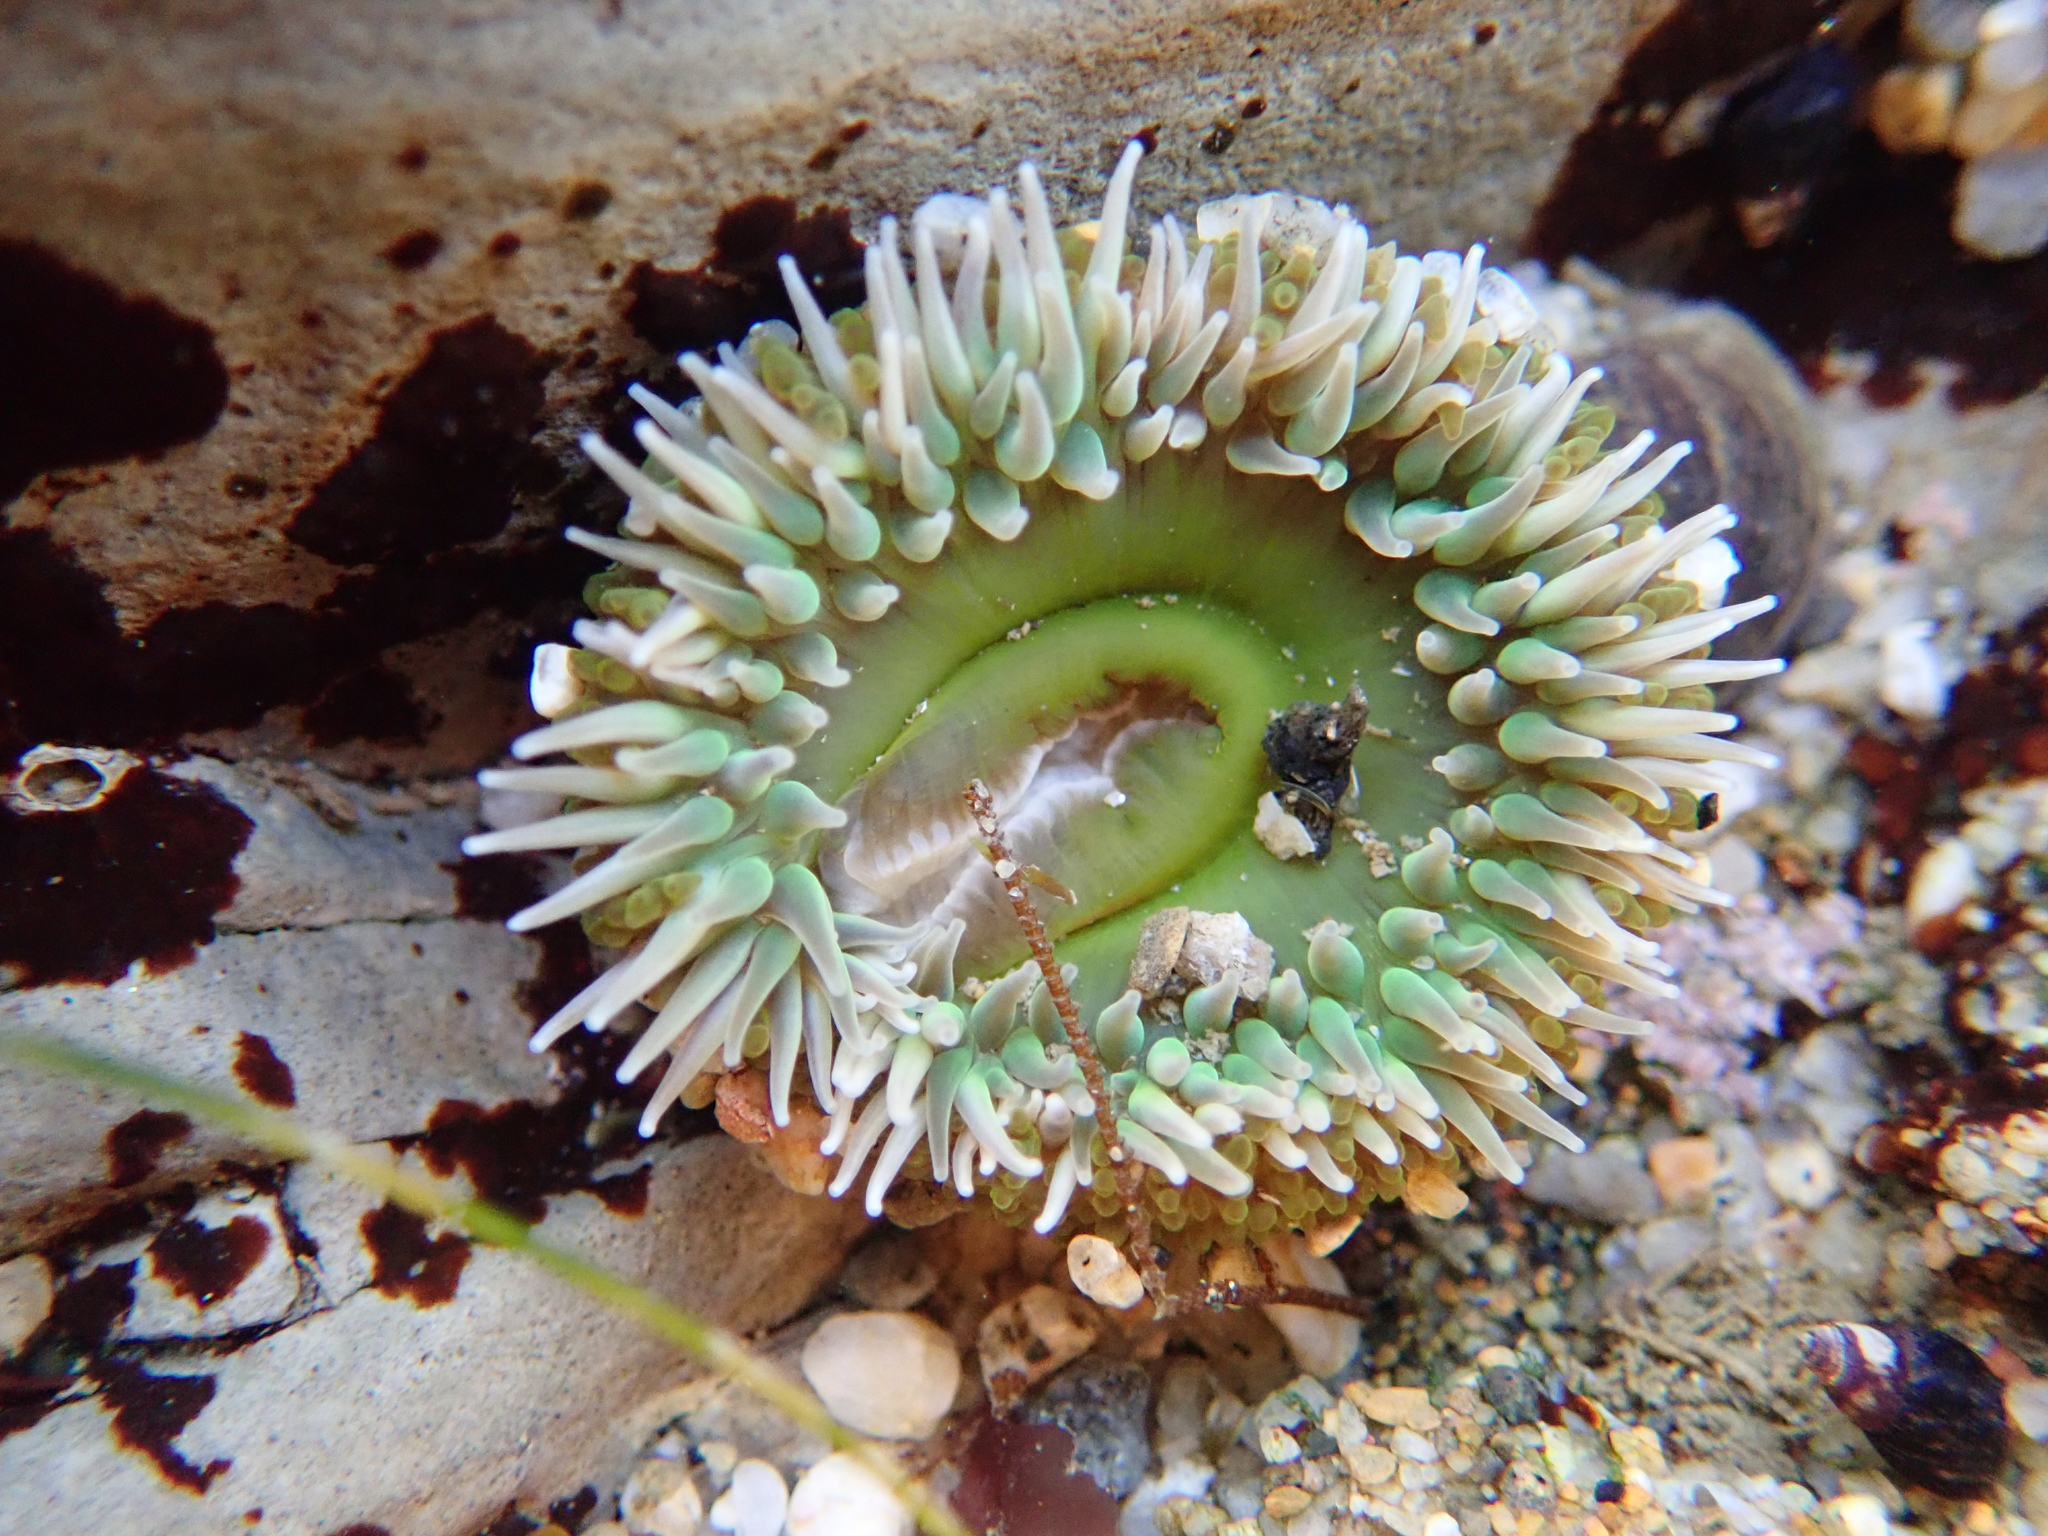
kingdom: Animalia
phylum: Cnidaria
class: Anthozoa
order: Actiniaria
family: Actiniidae
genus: Anthopleura
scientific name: Anthopleura xanthogrammica
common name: Giant green anemone
